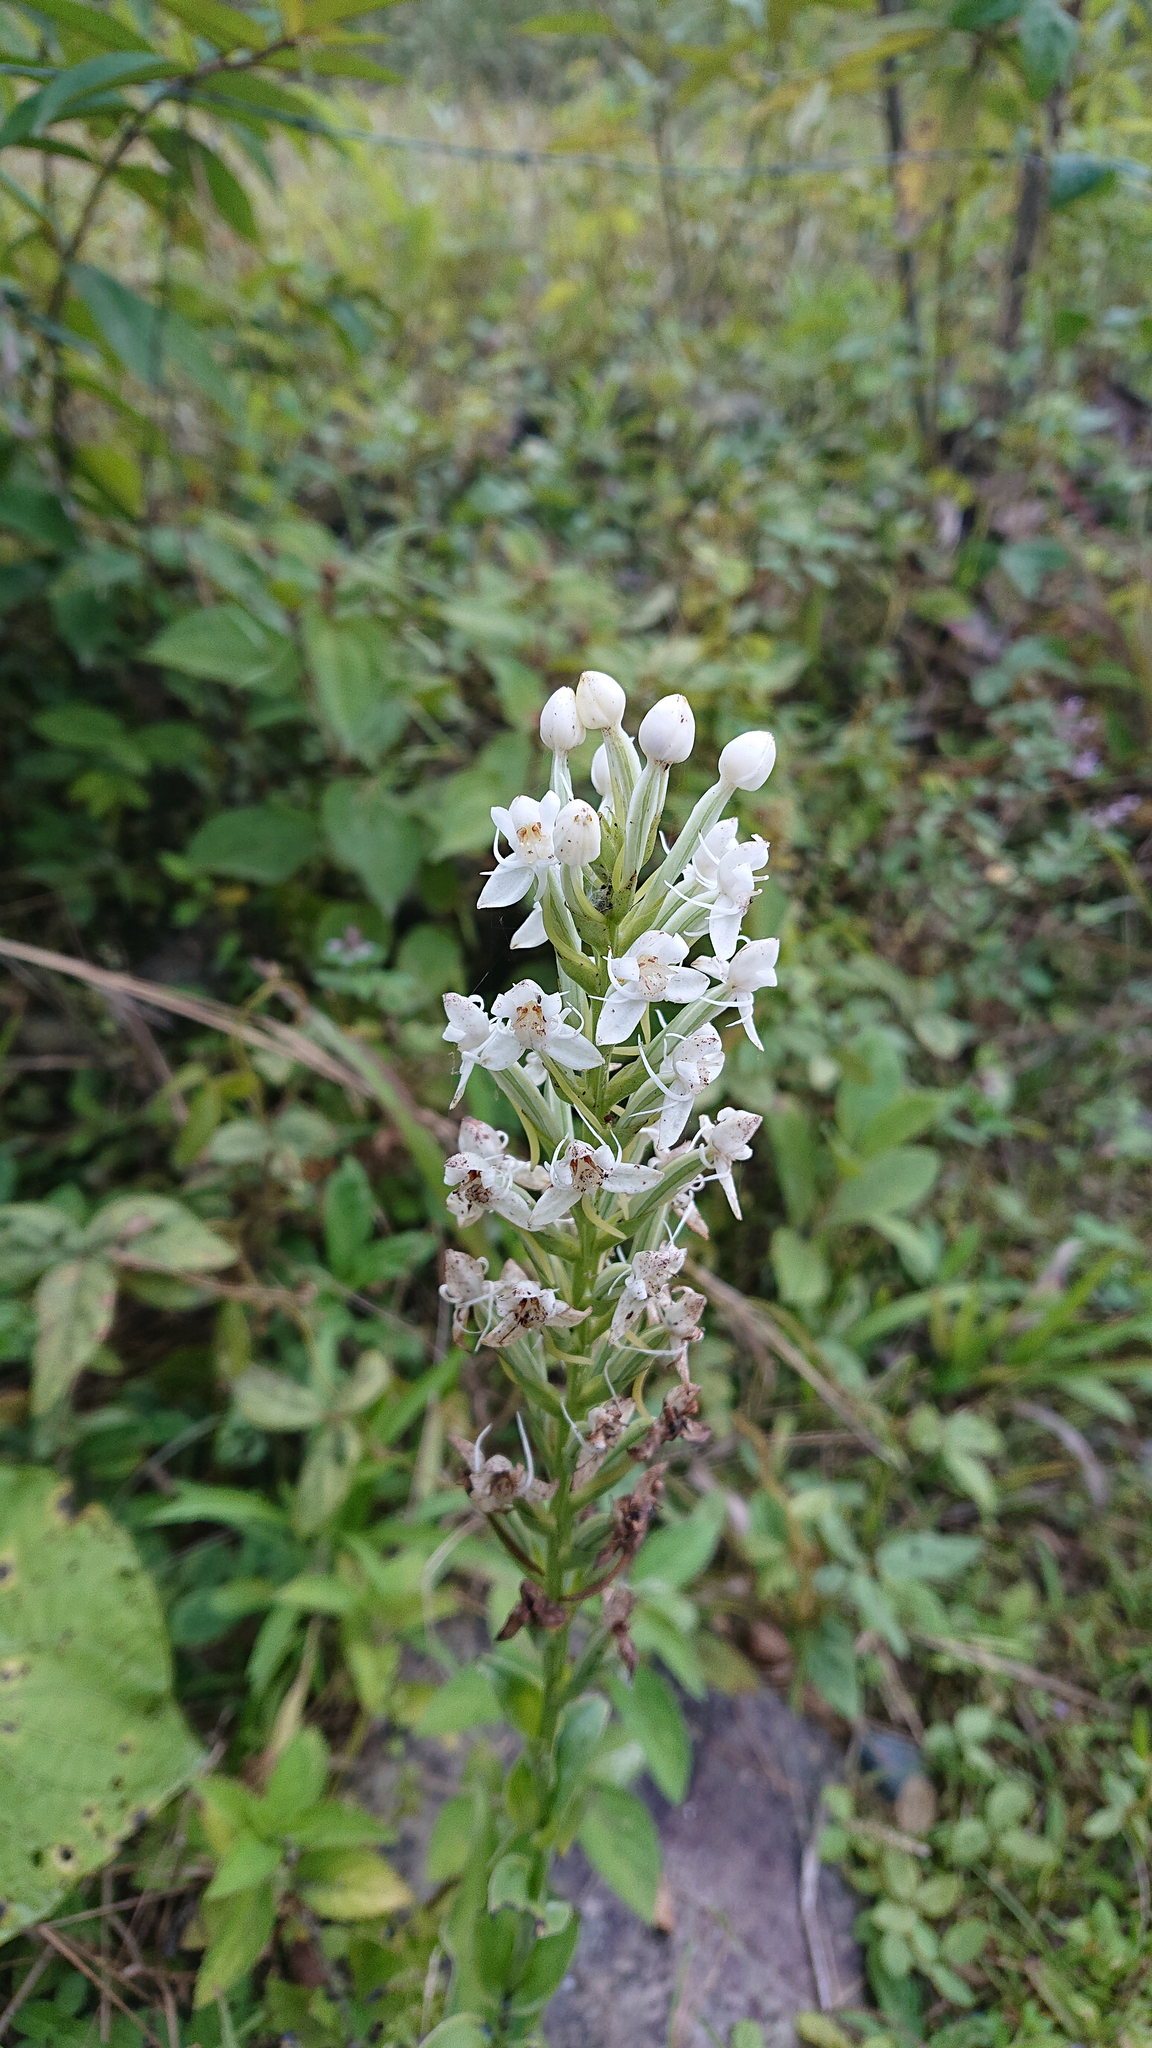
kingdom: Plantae
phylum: Tracheophyta
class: Liliopsida
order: Asparagales
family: Orchidaceae
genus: Habenaria
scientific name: Habenaria monorrhiza
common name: Tropical bog orchid
